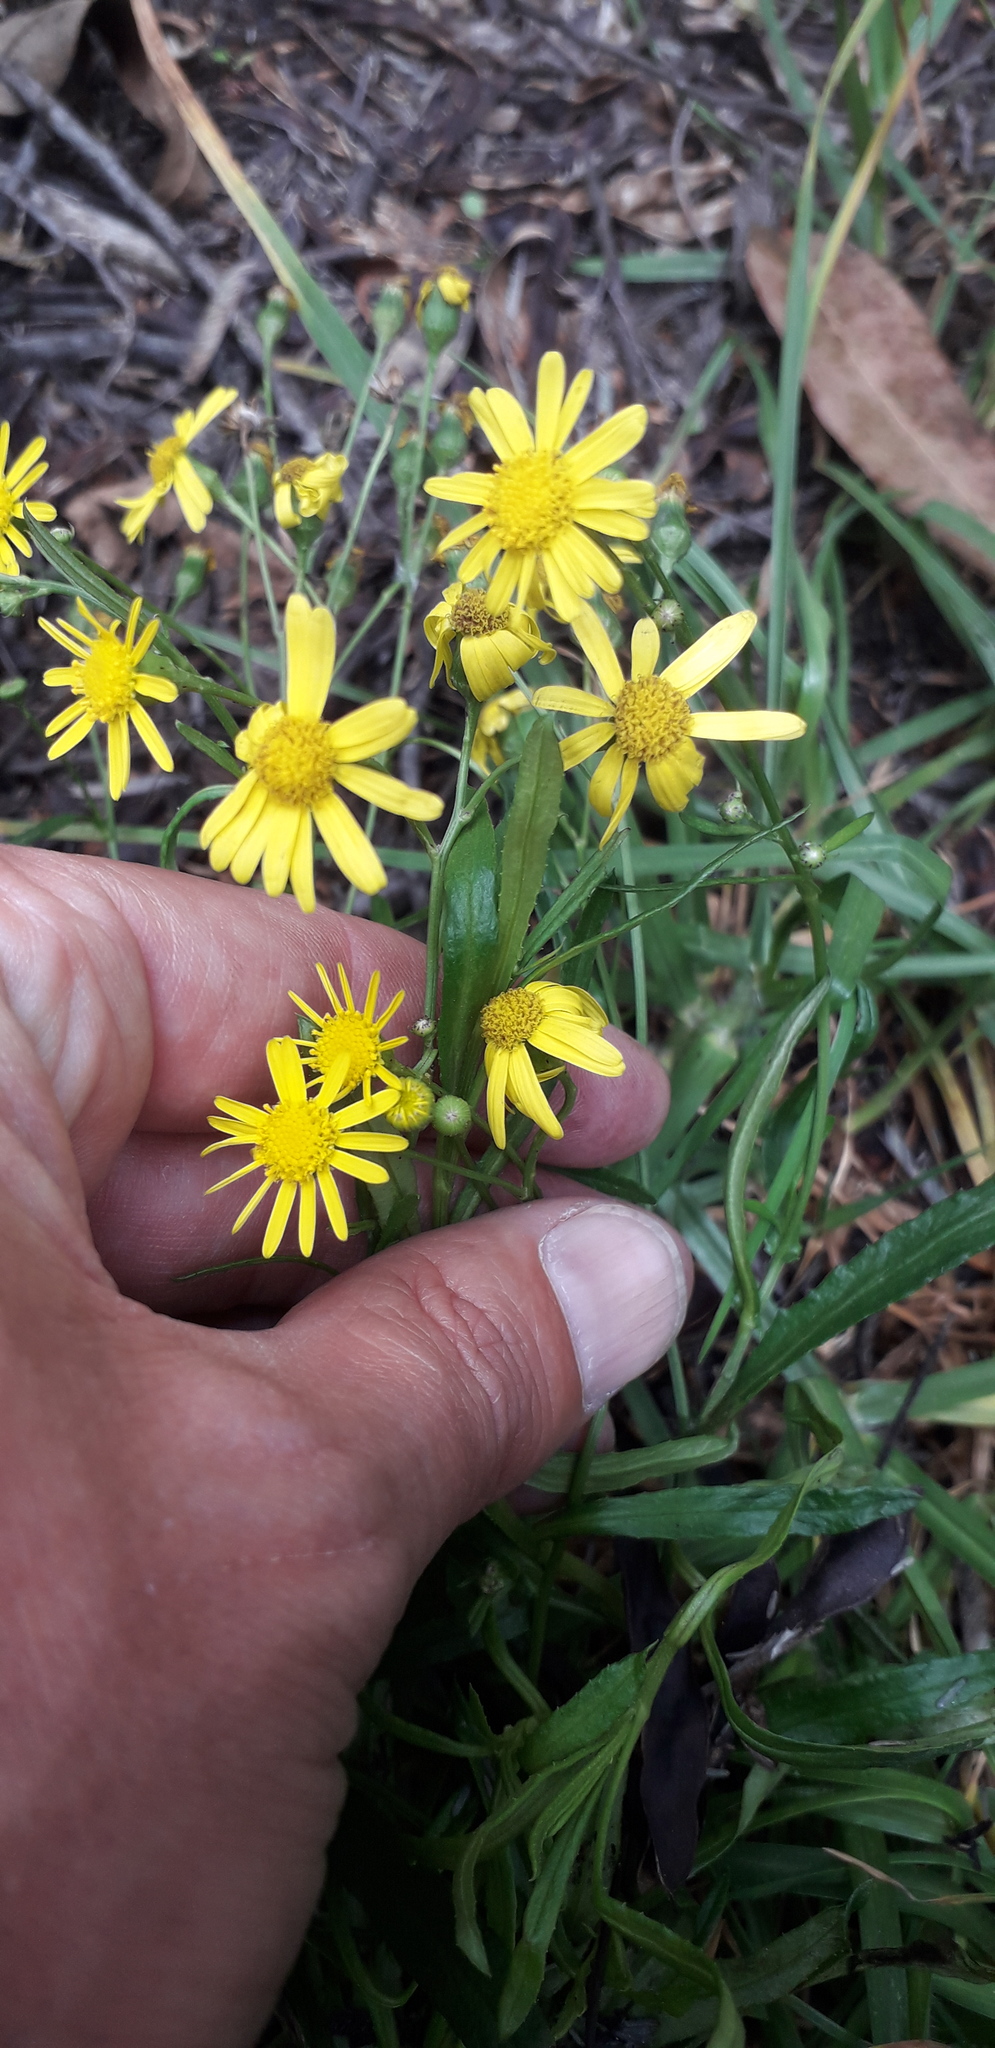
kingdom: Plantae
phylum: Tracheophyta
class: Magnoliopsida
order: Asterales
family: Asteraceae
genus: Senecio
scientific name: Senecio madagascariensis
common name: Madagascar ragwort
